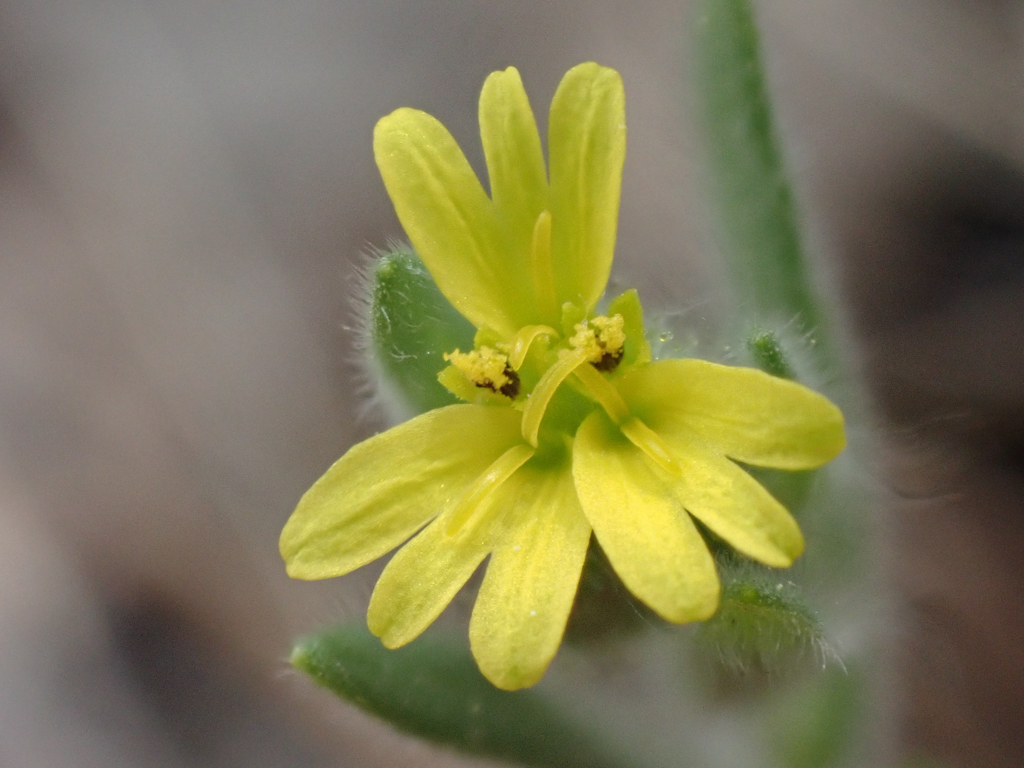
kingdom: Plantae
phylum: Tracheophyta
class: Magnoliopsida
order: Asterales
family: Asteraceae
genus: Madia
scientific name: Madia gracilis
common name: Grassy tarweed
